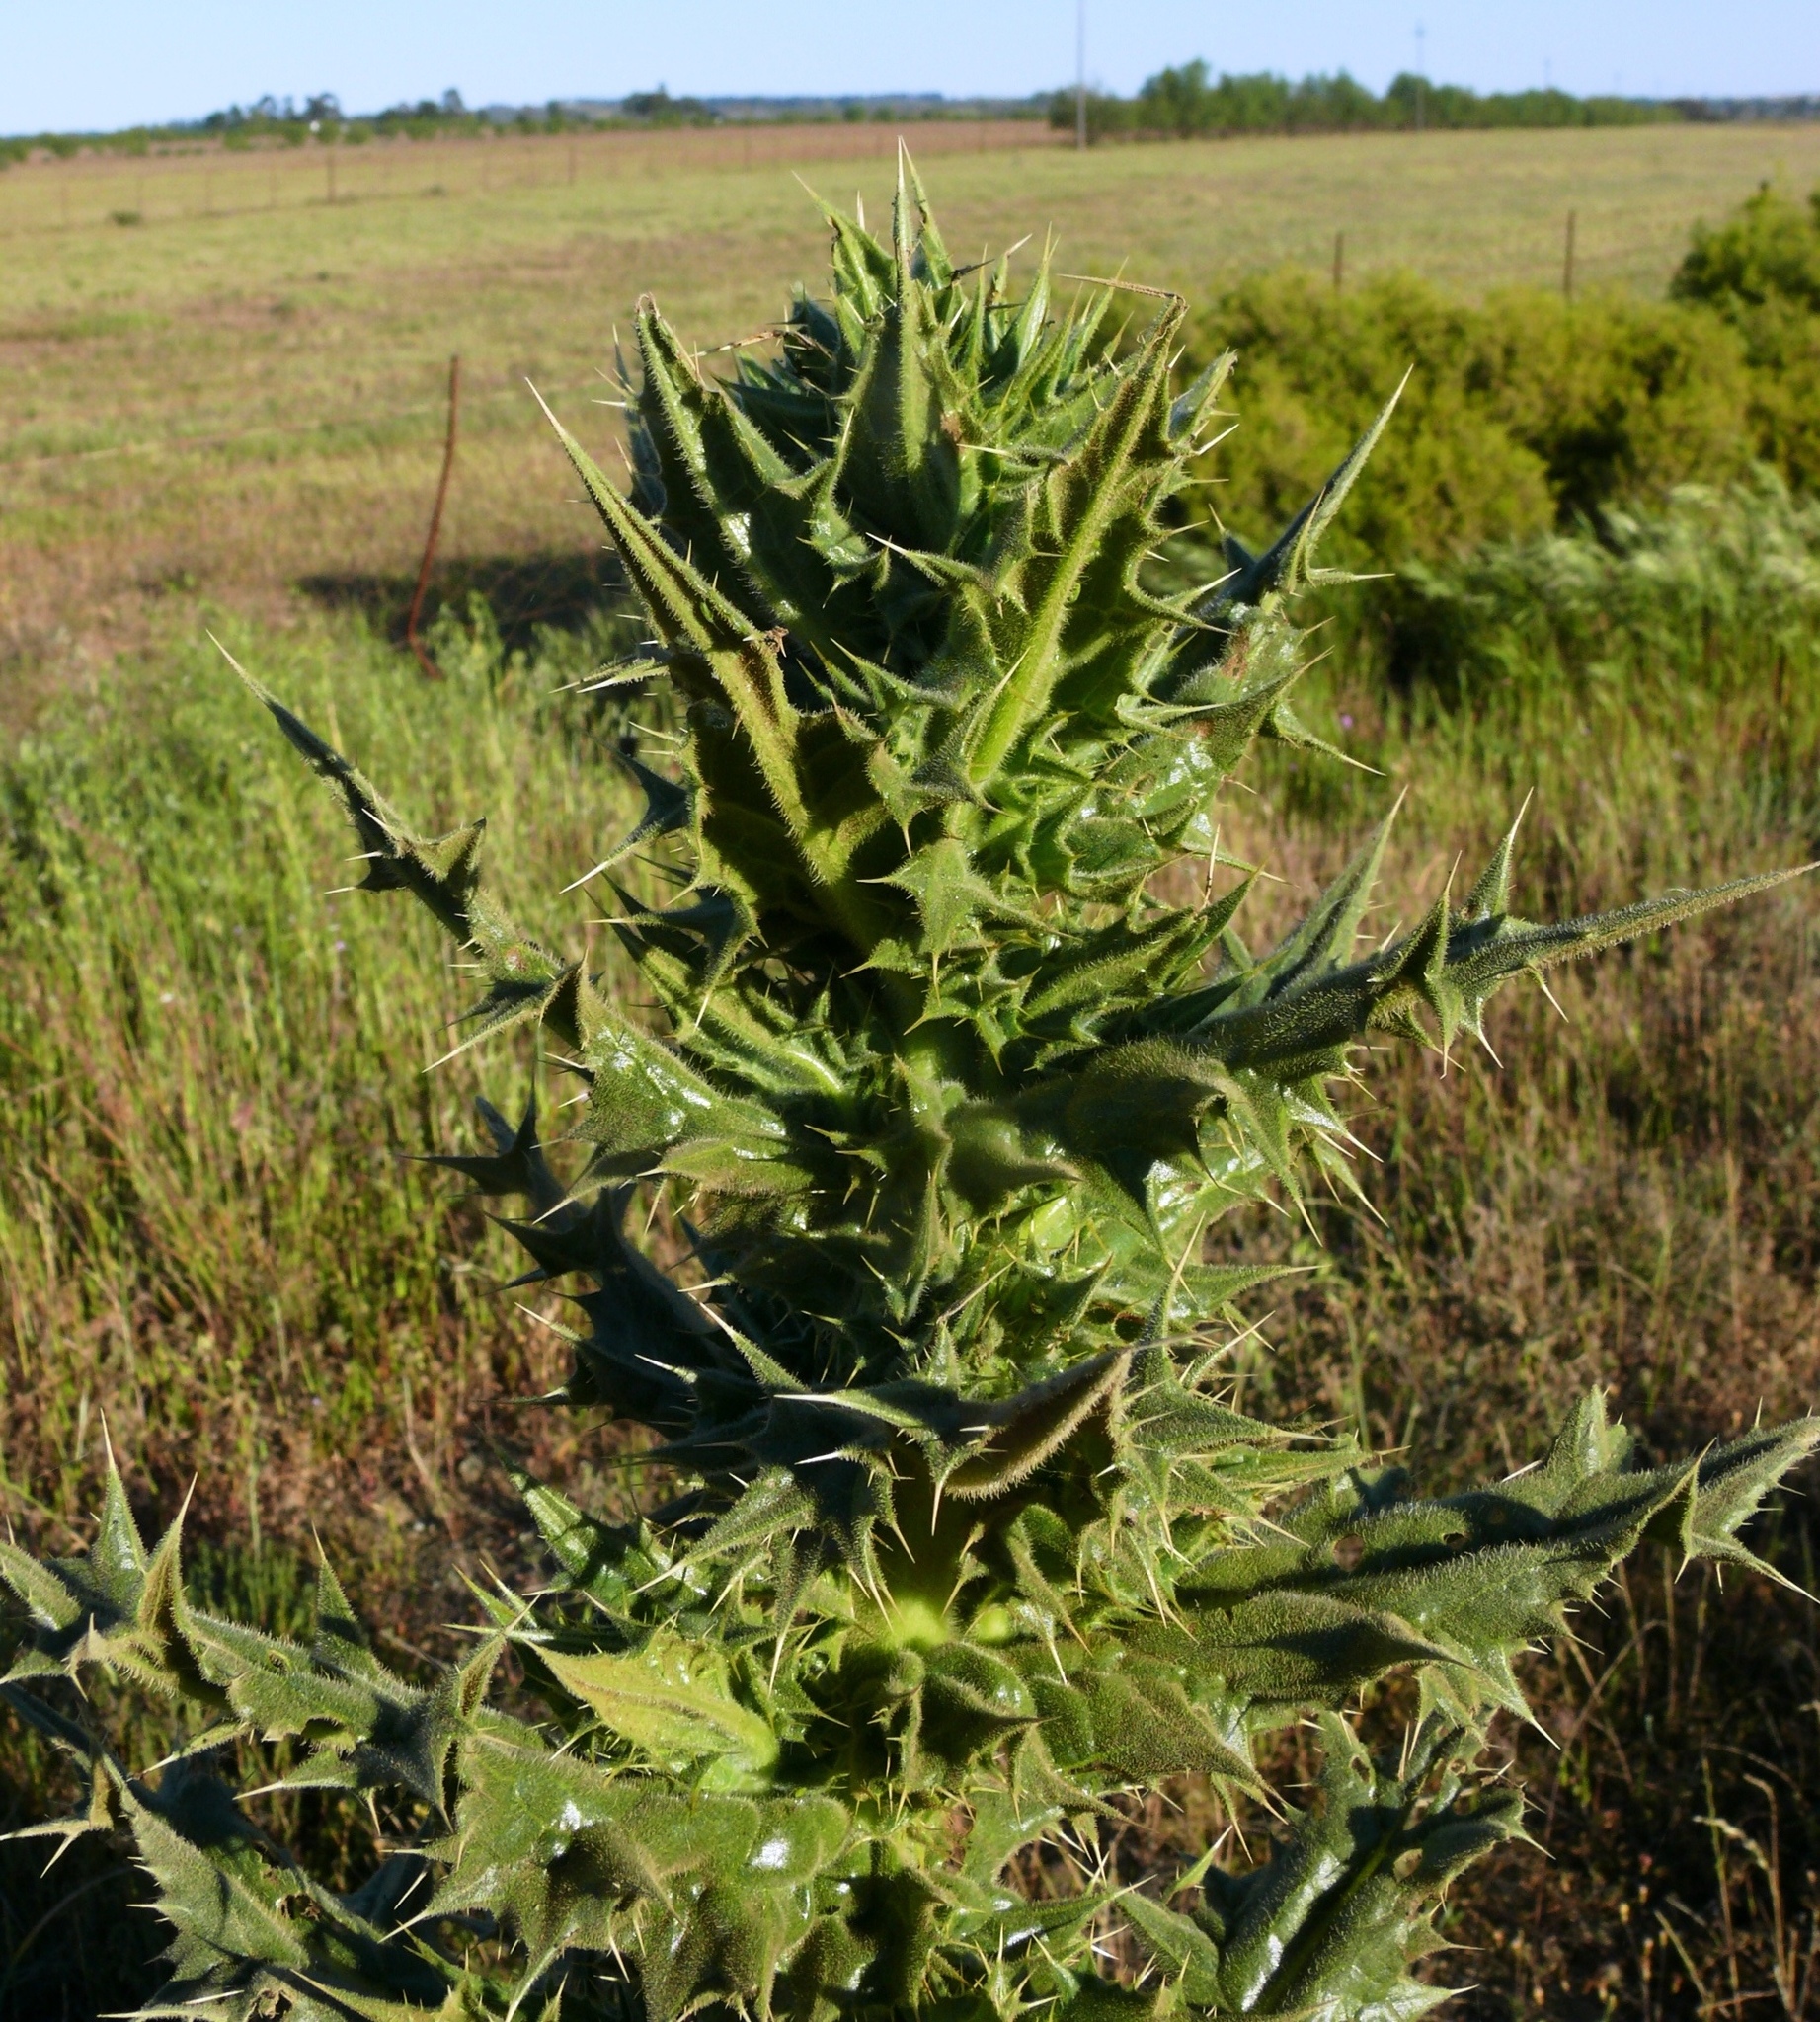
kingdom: Plantae
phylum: Tracheophyta
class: Magnoliopsida
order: Asterales
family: Asteraceae
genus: Berkheya
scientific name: Berkheya onobromoides
